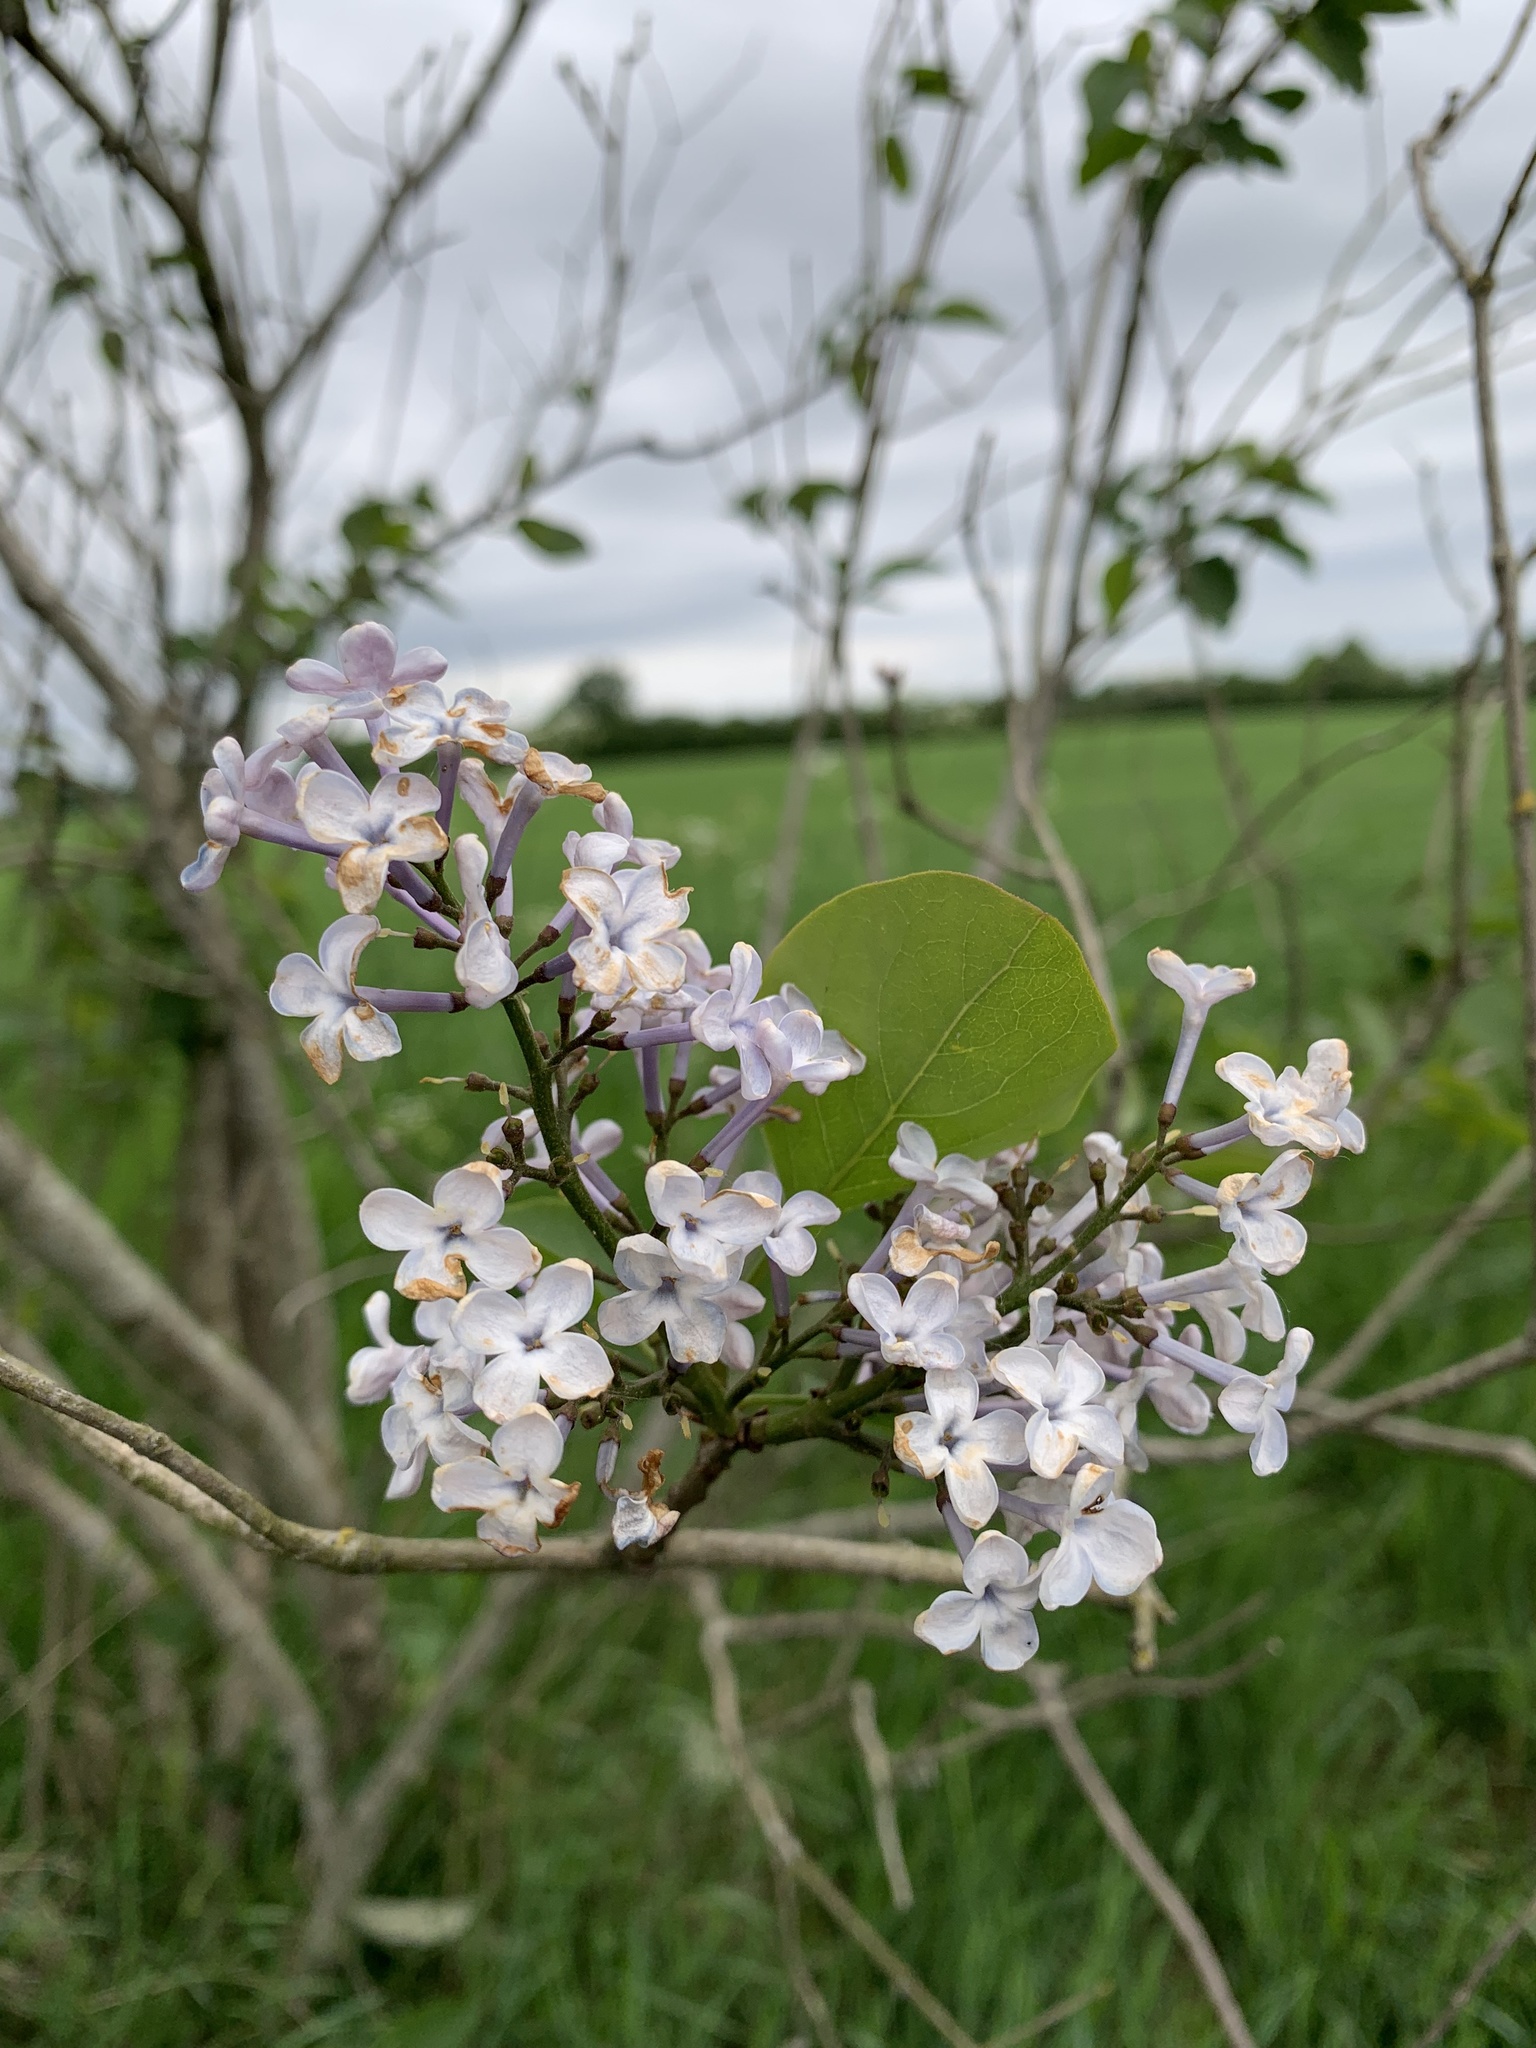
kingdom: Plantae
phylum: Tracheophyta
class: Magnoliopsida
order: Lamiales
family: Oleaceae
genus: Syringa
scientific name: Syringa vulgaris
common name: Common lilac
